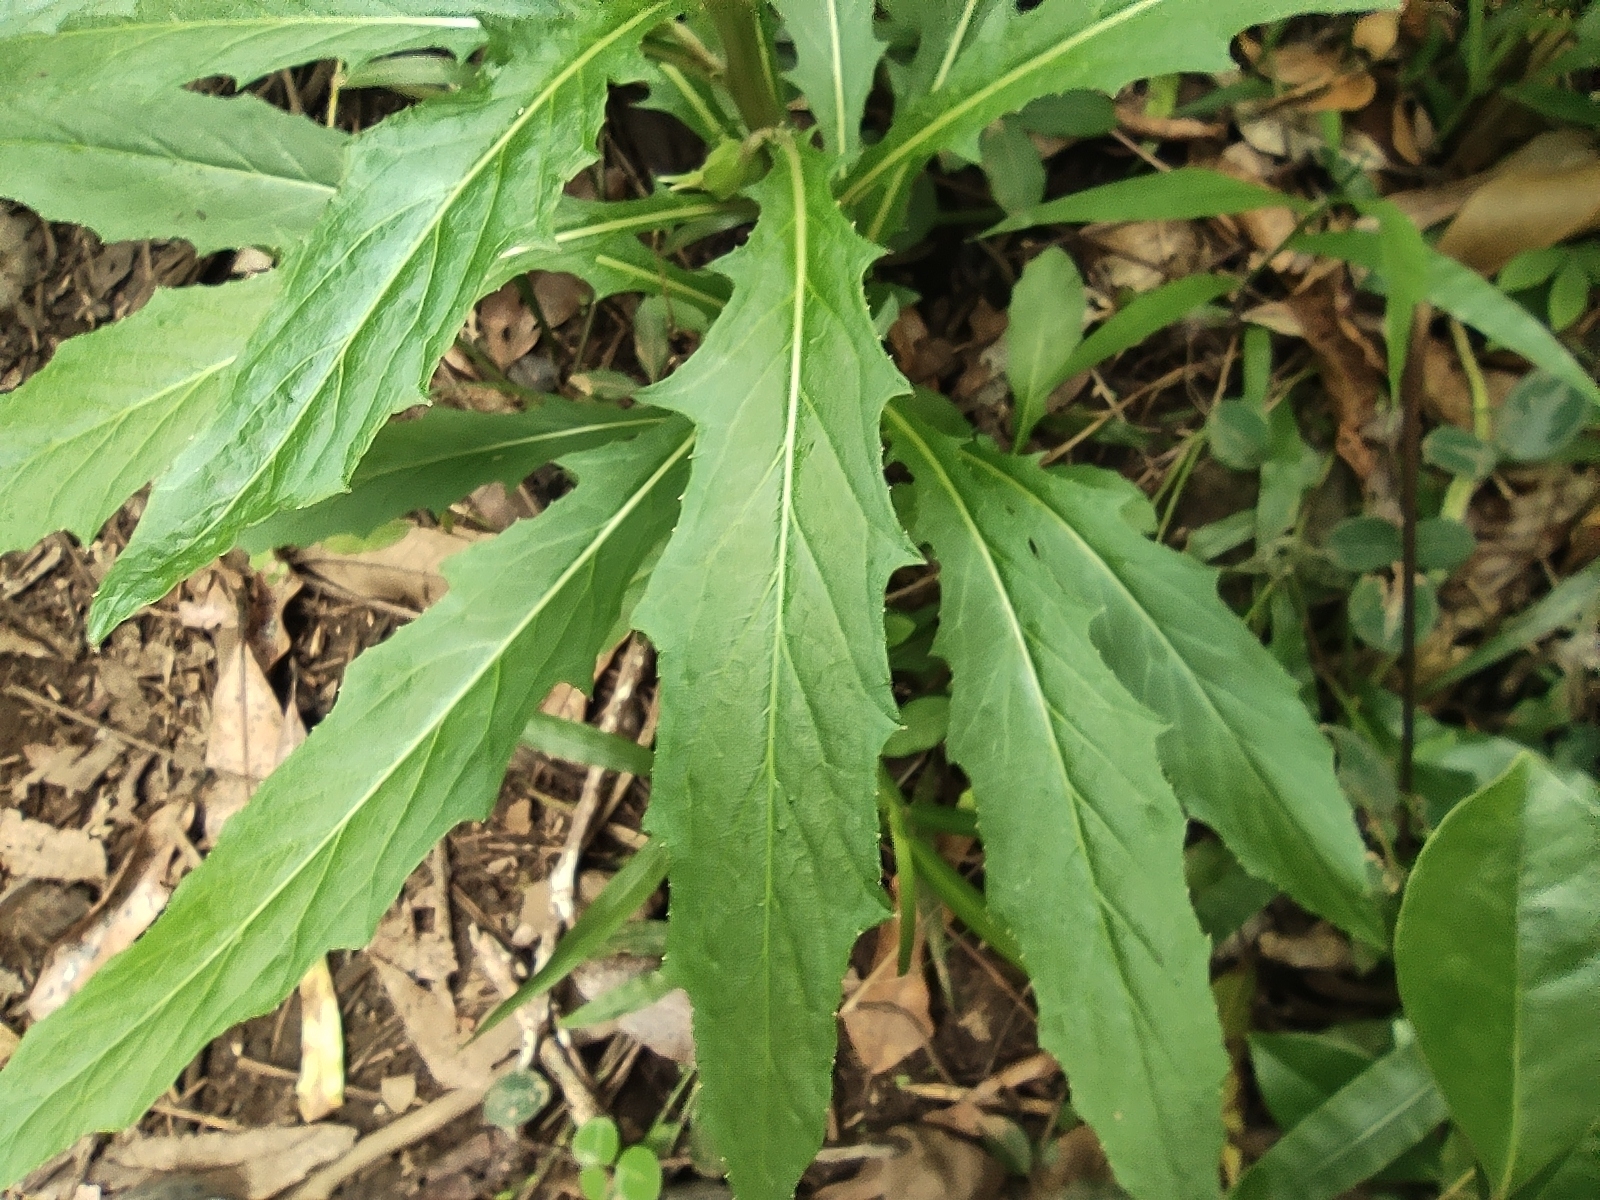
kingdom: Plantae
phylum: Tracheophyta
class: Magnoliopsida
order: Asterales
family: Campanulaceae
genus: Hippobroma
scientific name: Hippobroma longiflora
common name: Madamfate
